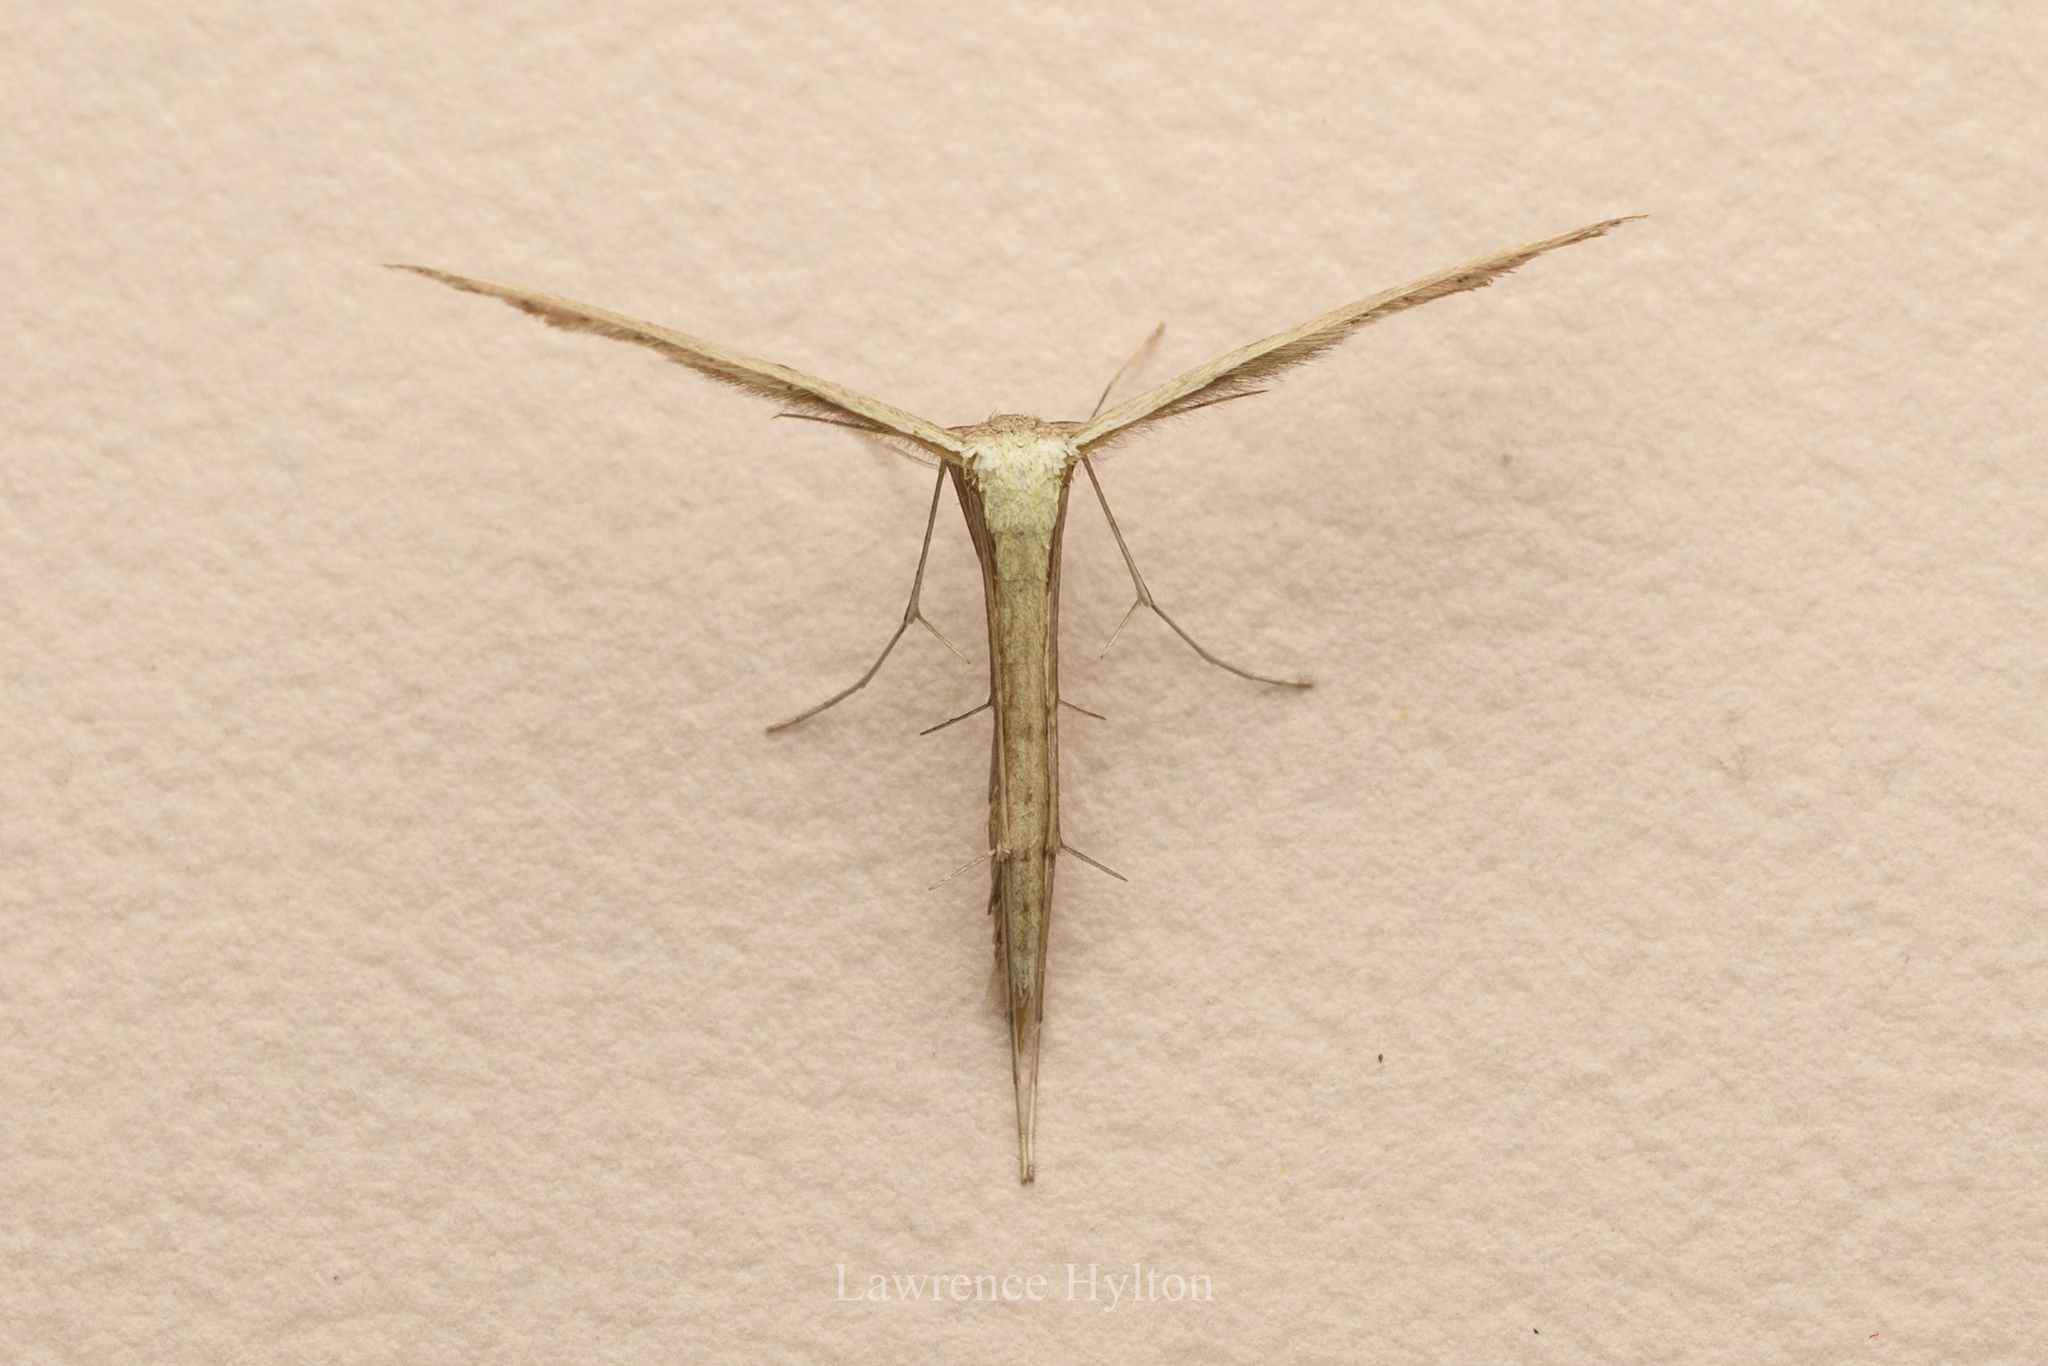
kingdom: Animalia
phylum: Arthropoda
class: Insecta
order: Lepidoptera
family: Pterophoridae
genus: Exelastis
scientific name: Exelastis pumilio
